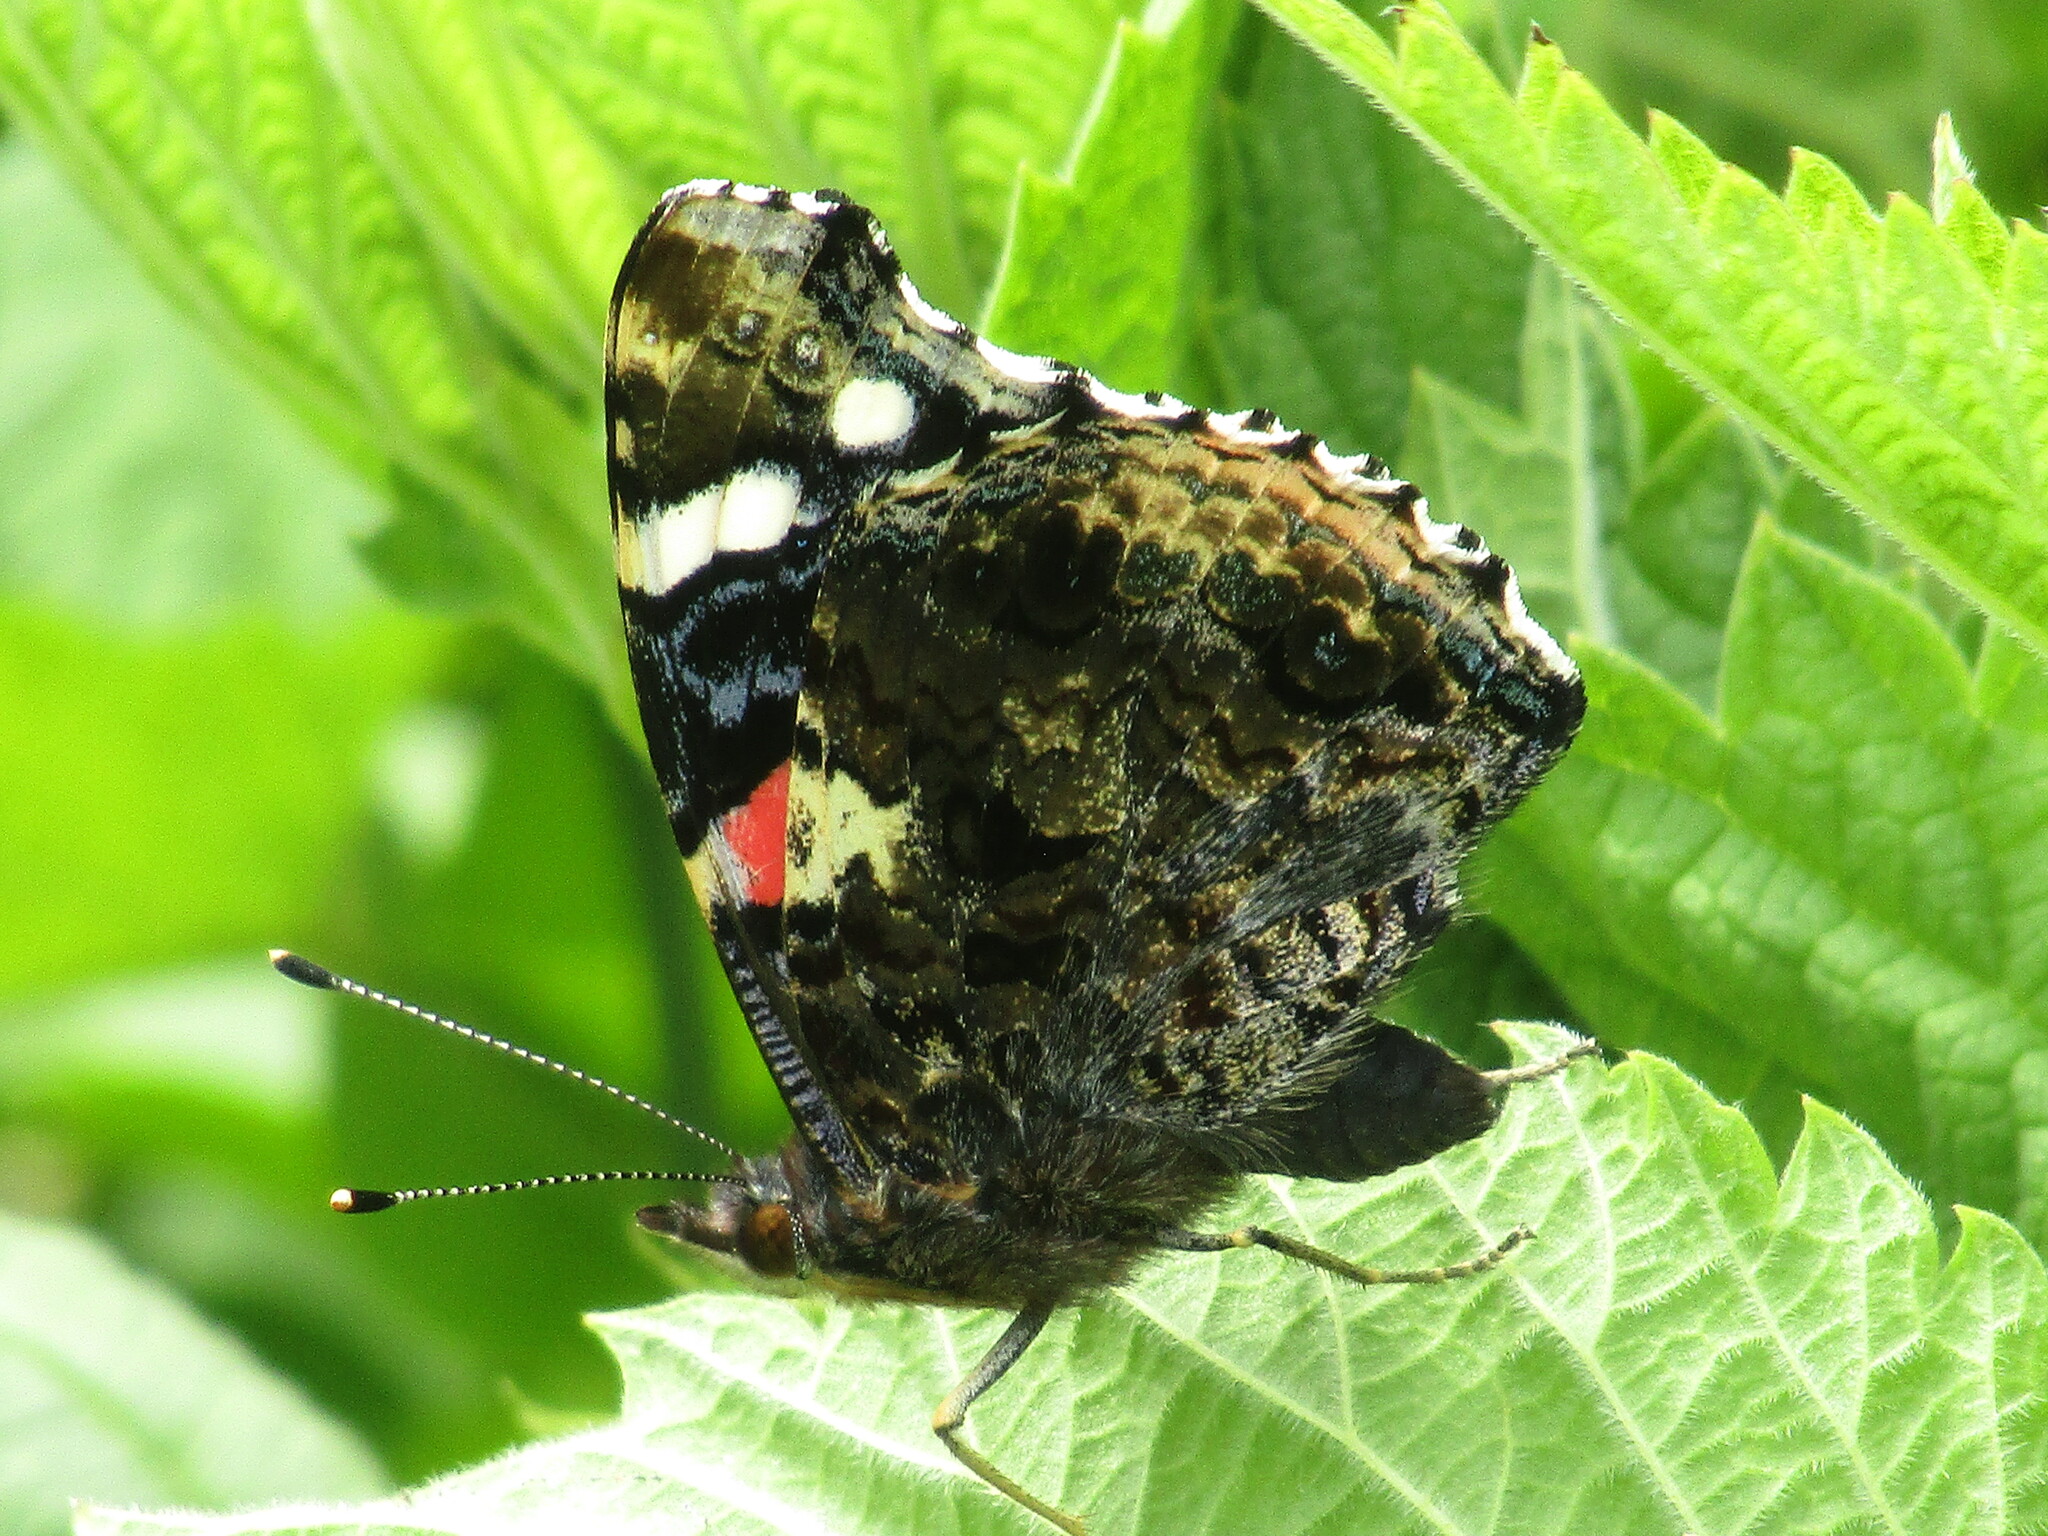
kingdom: Animalia
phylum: Arthropoda
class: Insecta
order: Lepidoptera
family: Nymphalidae
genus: Vanessa
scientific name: Vanessa atalanta
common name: Red admiral
